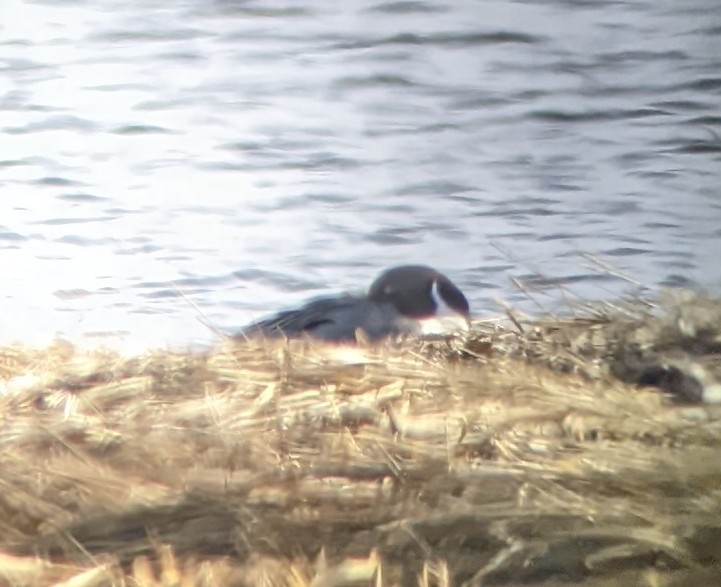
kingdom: Animalia
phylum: Chordata
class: Aves
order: Anseriformes
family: Anatidae
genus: Anas
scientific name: Anas acuta
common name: Northern pintail
